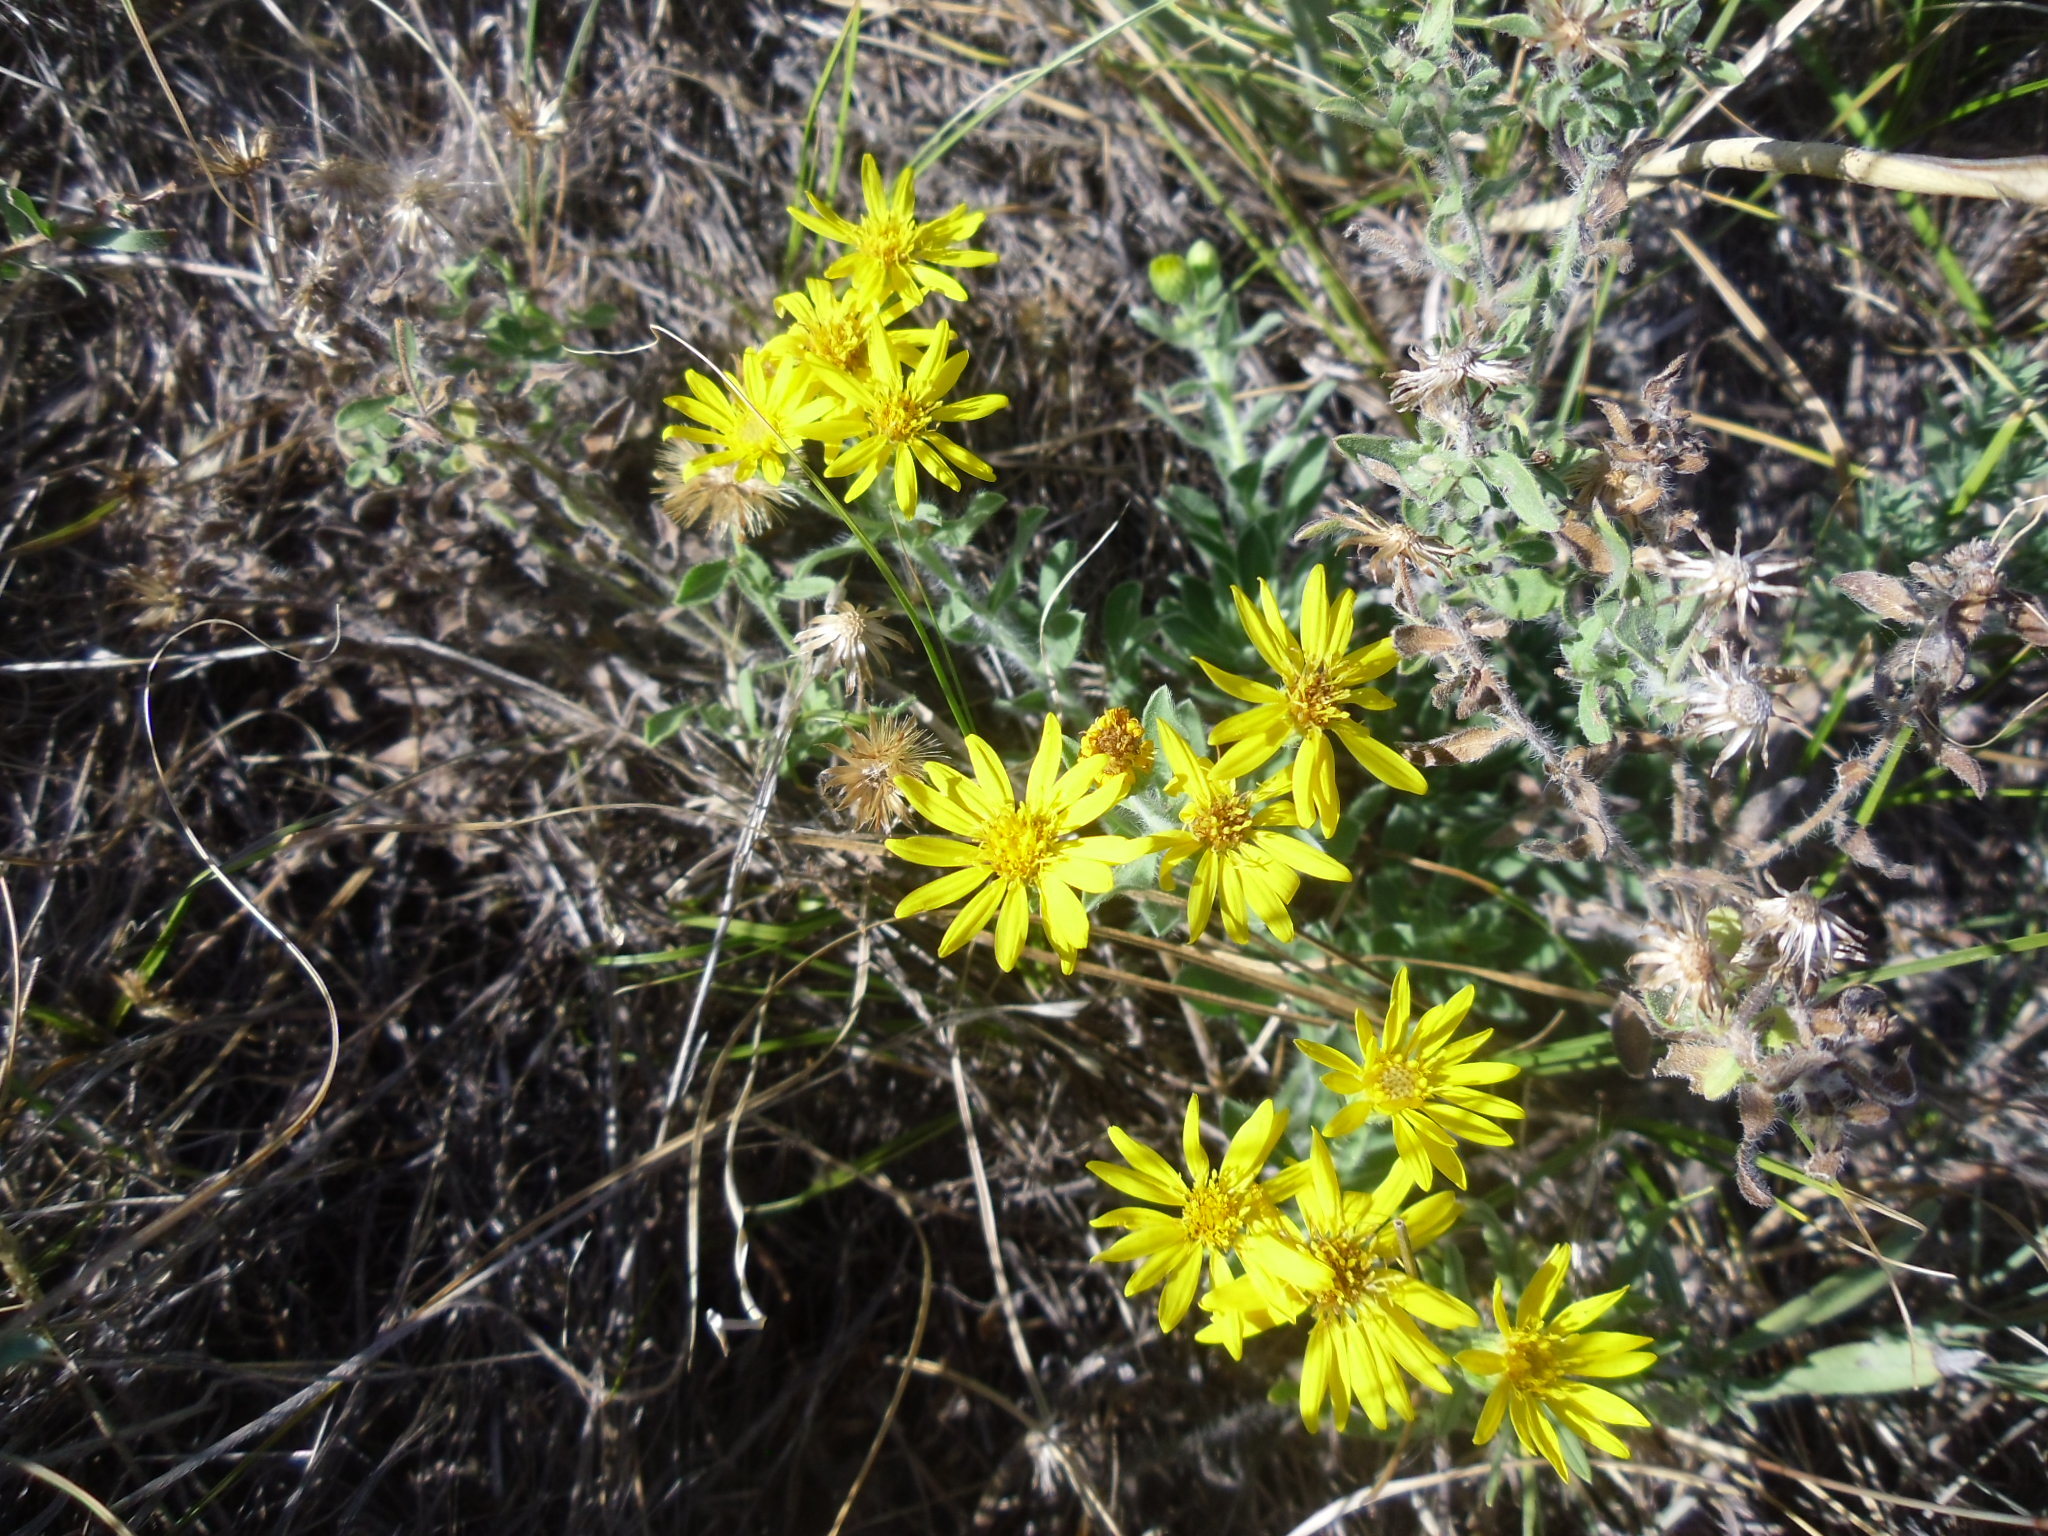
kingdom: Plantae
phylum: Tracheophyta
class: Magnoliopsida
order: Asterales
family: Asteraceae
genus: Heterotheca
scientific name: Heterotheca villosa
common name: Hairy false goldenaster
